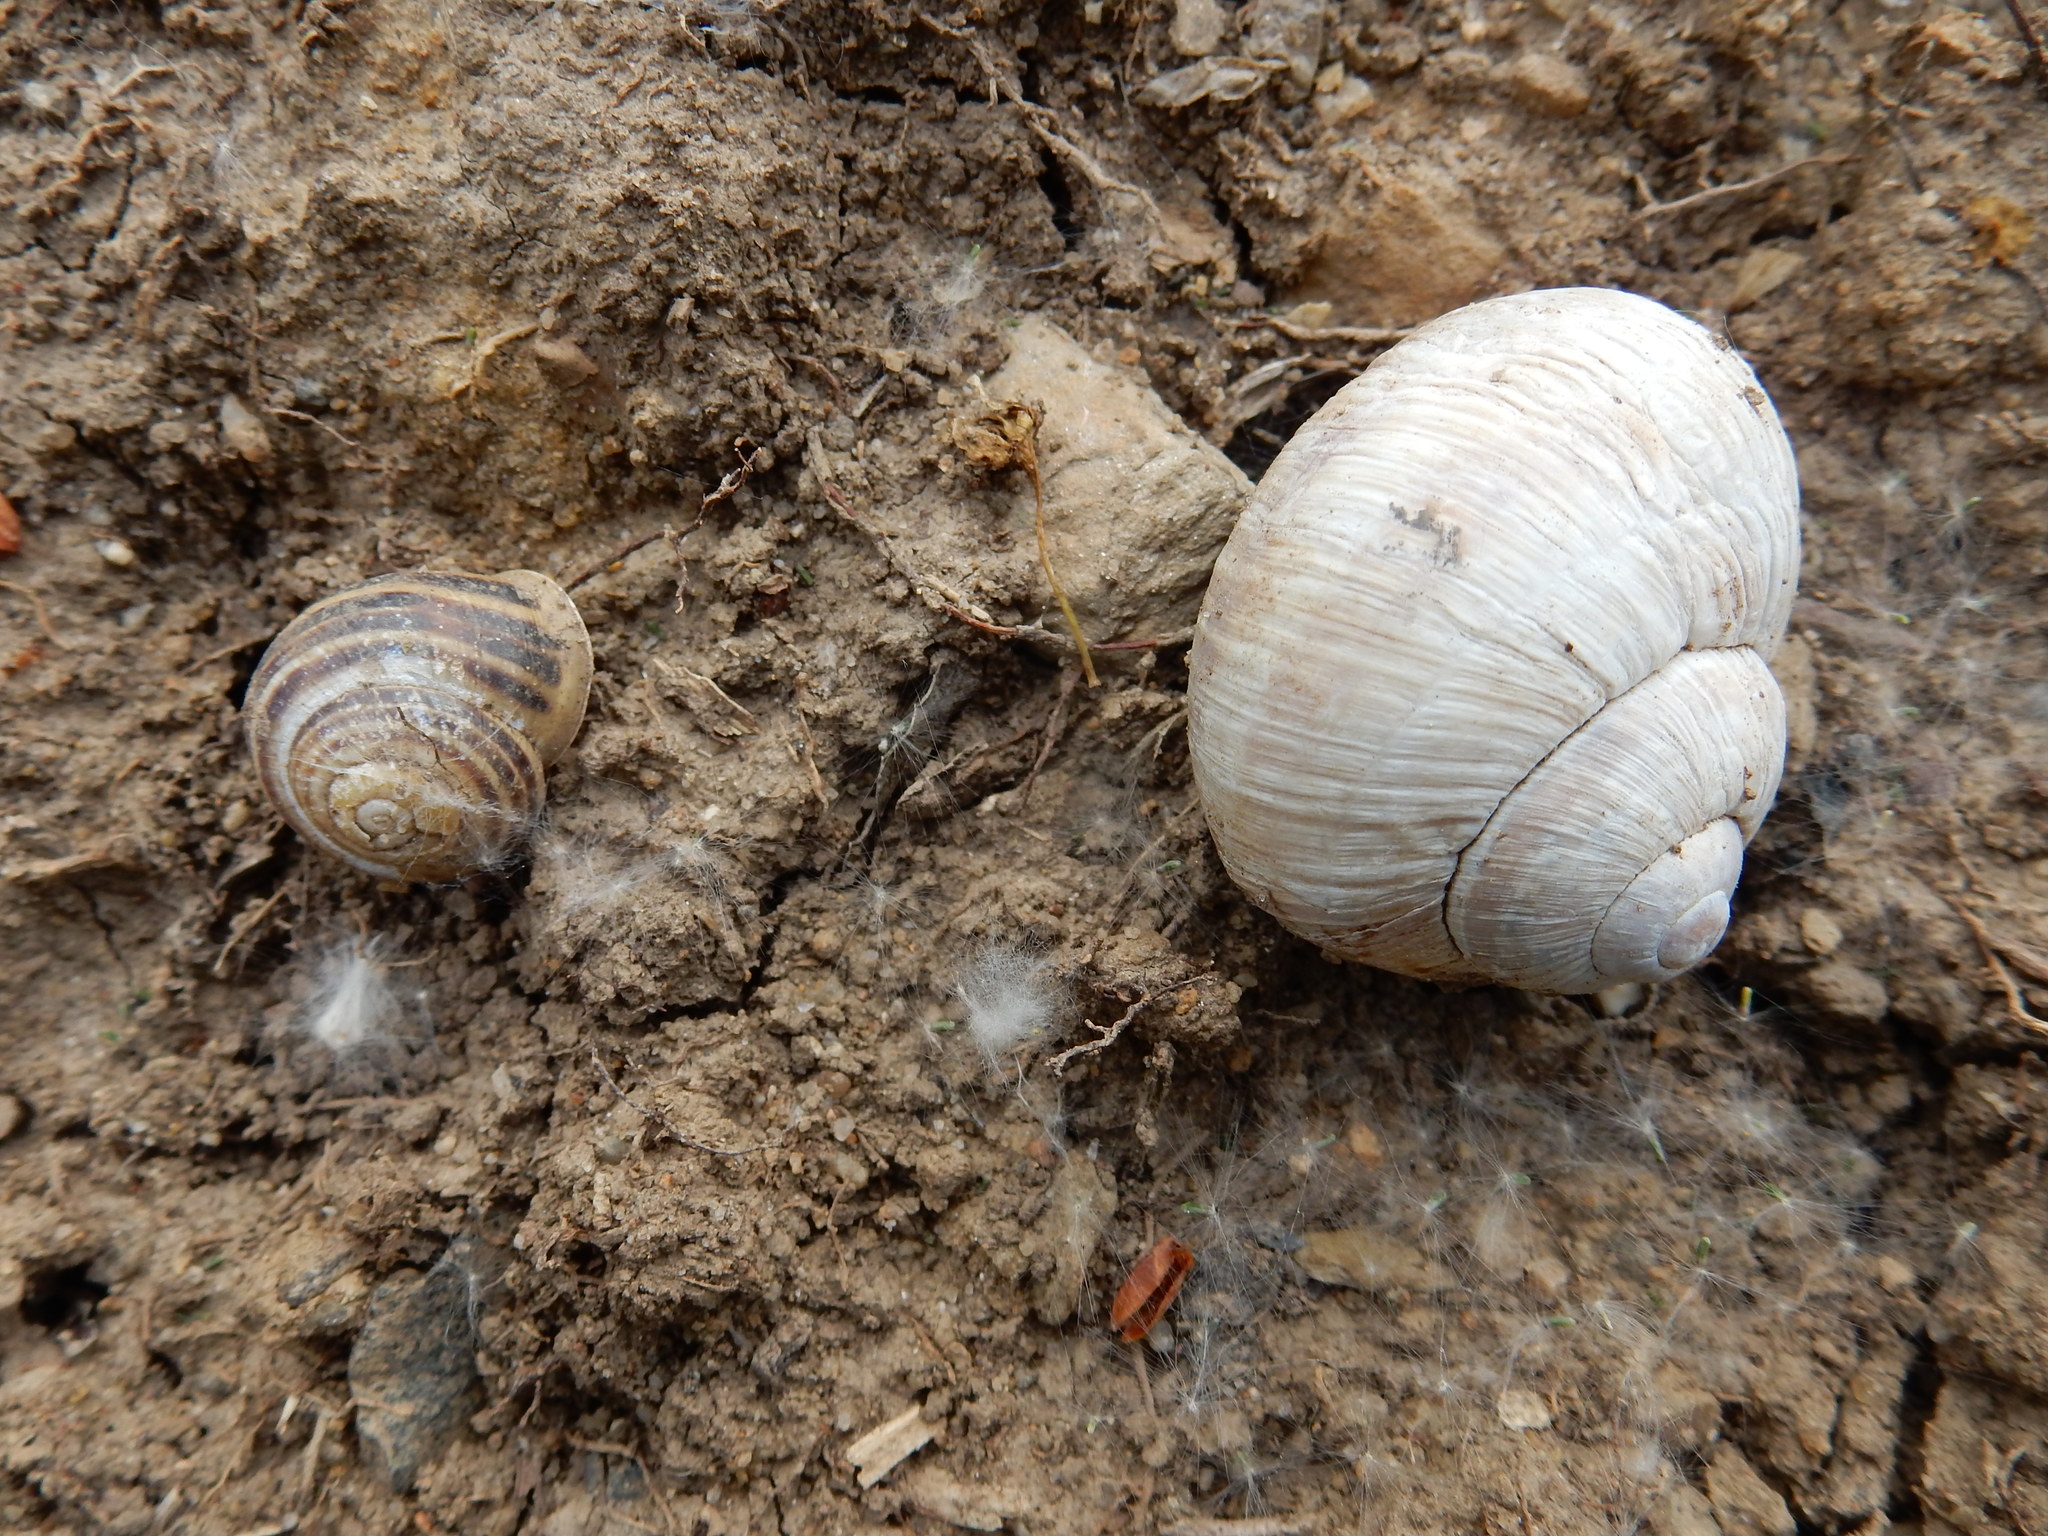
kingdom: Animalia
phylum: Mollusca
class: Gastropoda
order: Stylommatophora
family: Helicidae
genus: Cepaea
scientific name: Cepaea hortensis
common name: White-lip gardensnail
